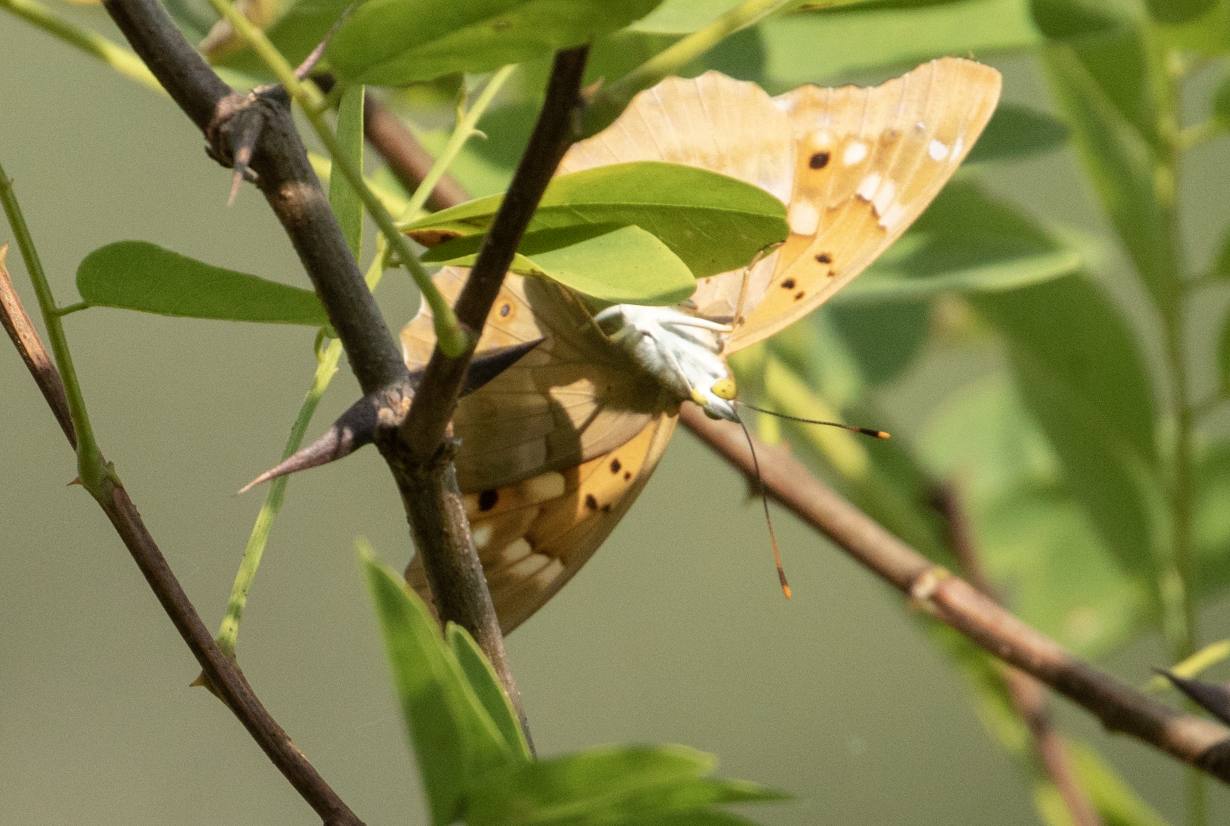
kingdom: Animalia
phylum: Arthropoda
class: Insecta
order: Lepidoptera
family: Nymphalidae
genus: Apatura
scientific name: Apatura ilia
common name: Lesser purple emperor
